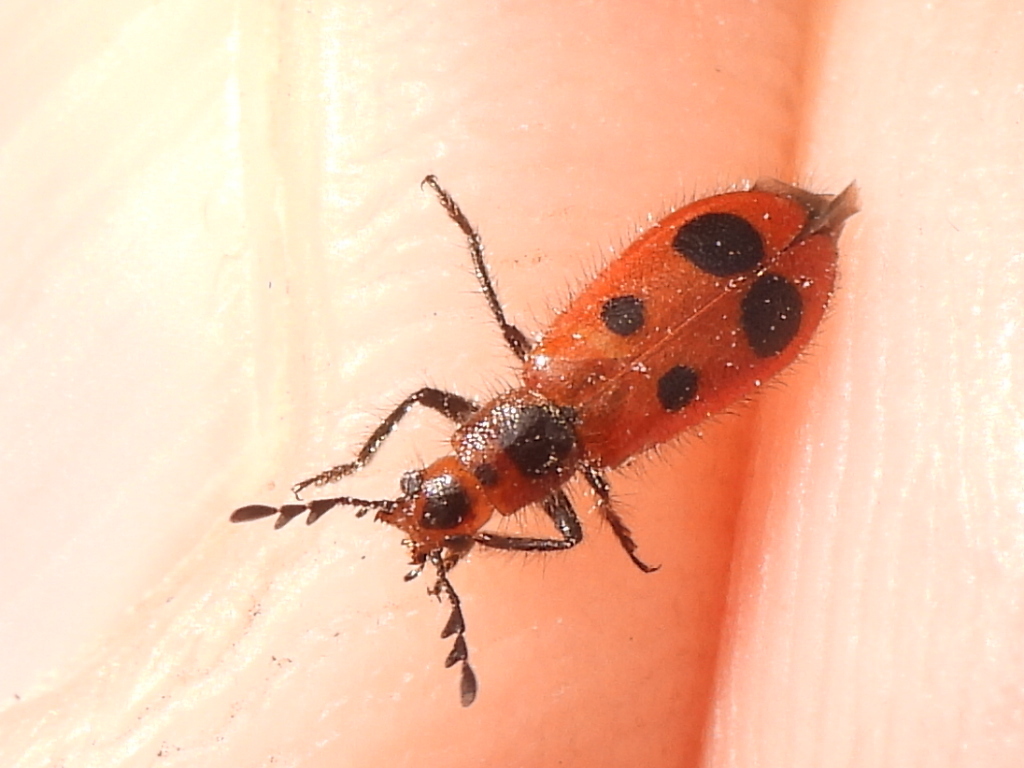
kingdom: Animalia
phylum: Arthropoda
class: Insecta
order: Coleoptera
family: Cleridae
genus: Pelonides
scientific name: Pelonides
